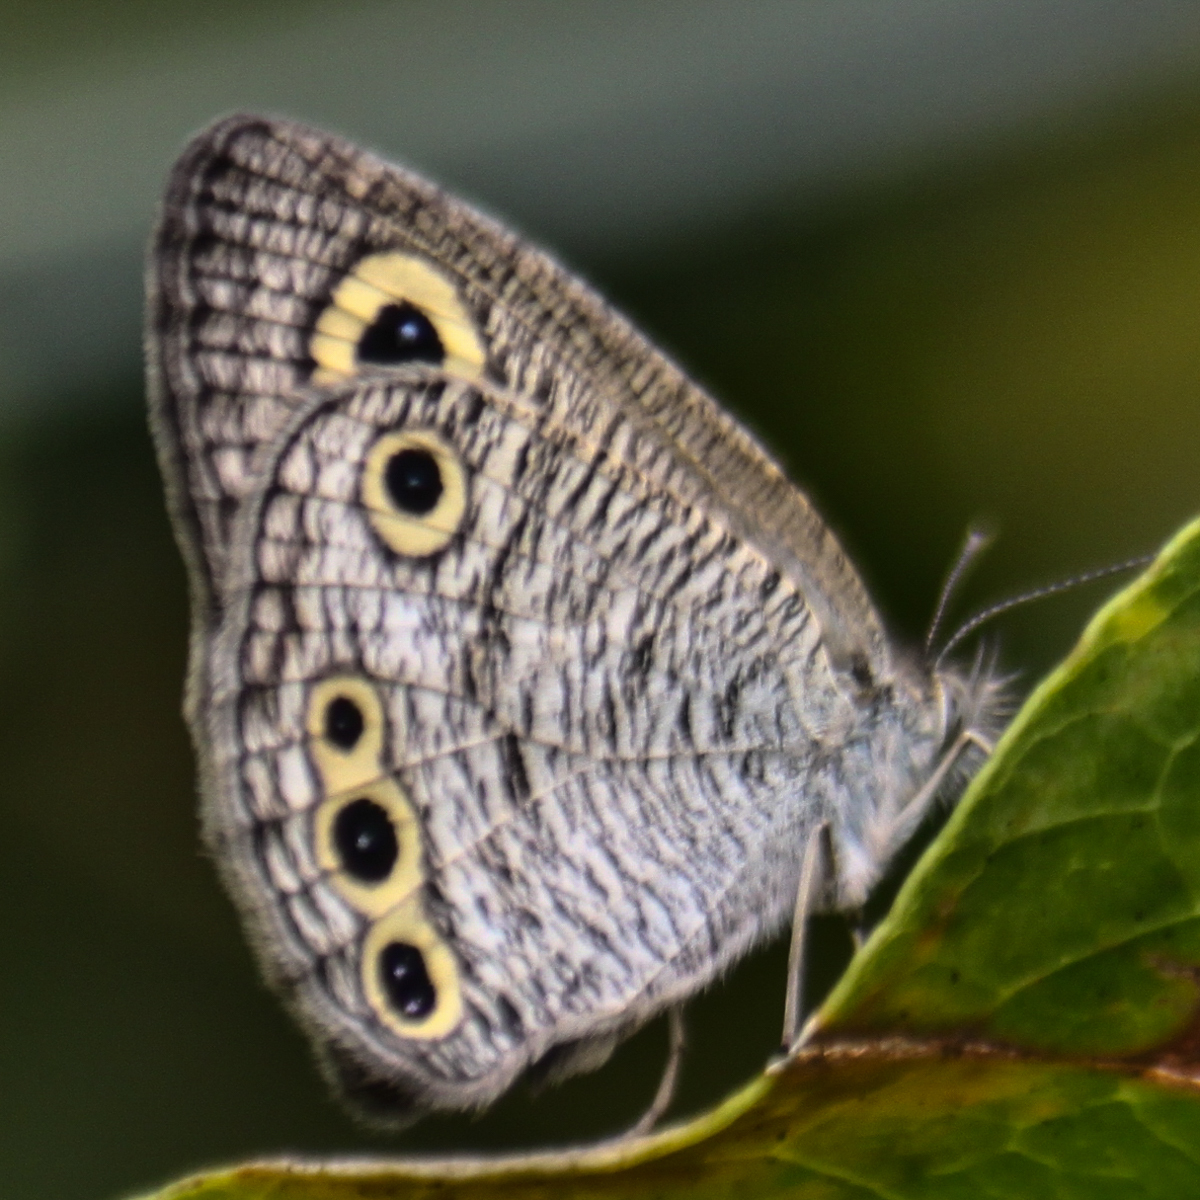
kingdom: Animalia
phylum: Arthropoda
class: Insecta
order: Lepidoptera
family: Nymphalidae
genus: Ypthima
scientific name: Ypthima huebneri
